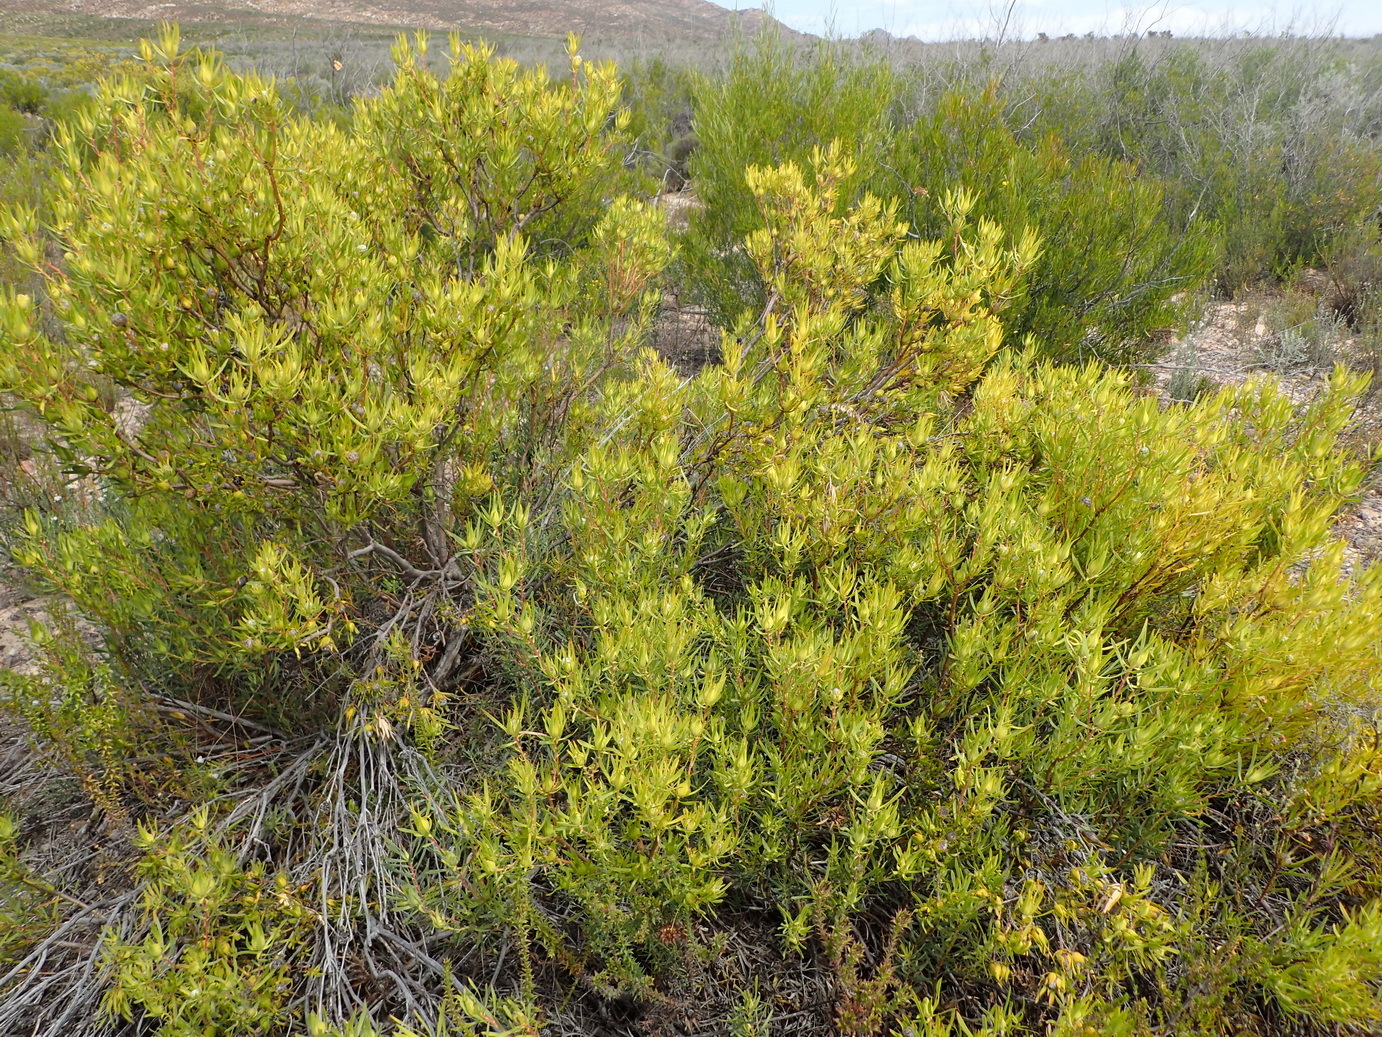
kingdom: Plantae
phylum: Tracheophyta
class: Magnoliopsida
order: Proteales
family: Proteaceae
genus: Leucadendron
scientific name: Leucadendron salignum
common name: Common sunshine conebush
